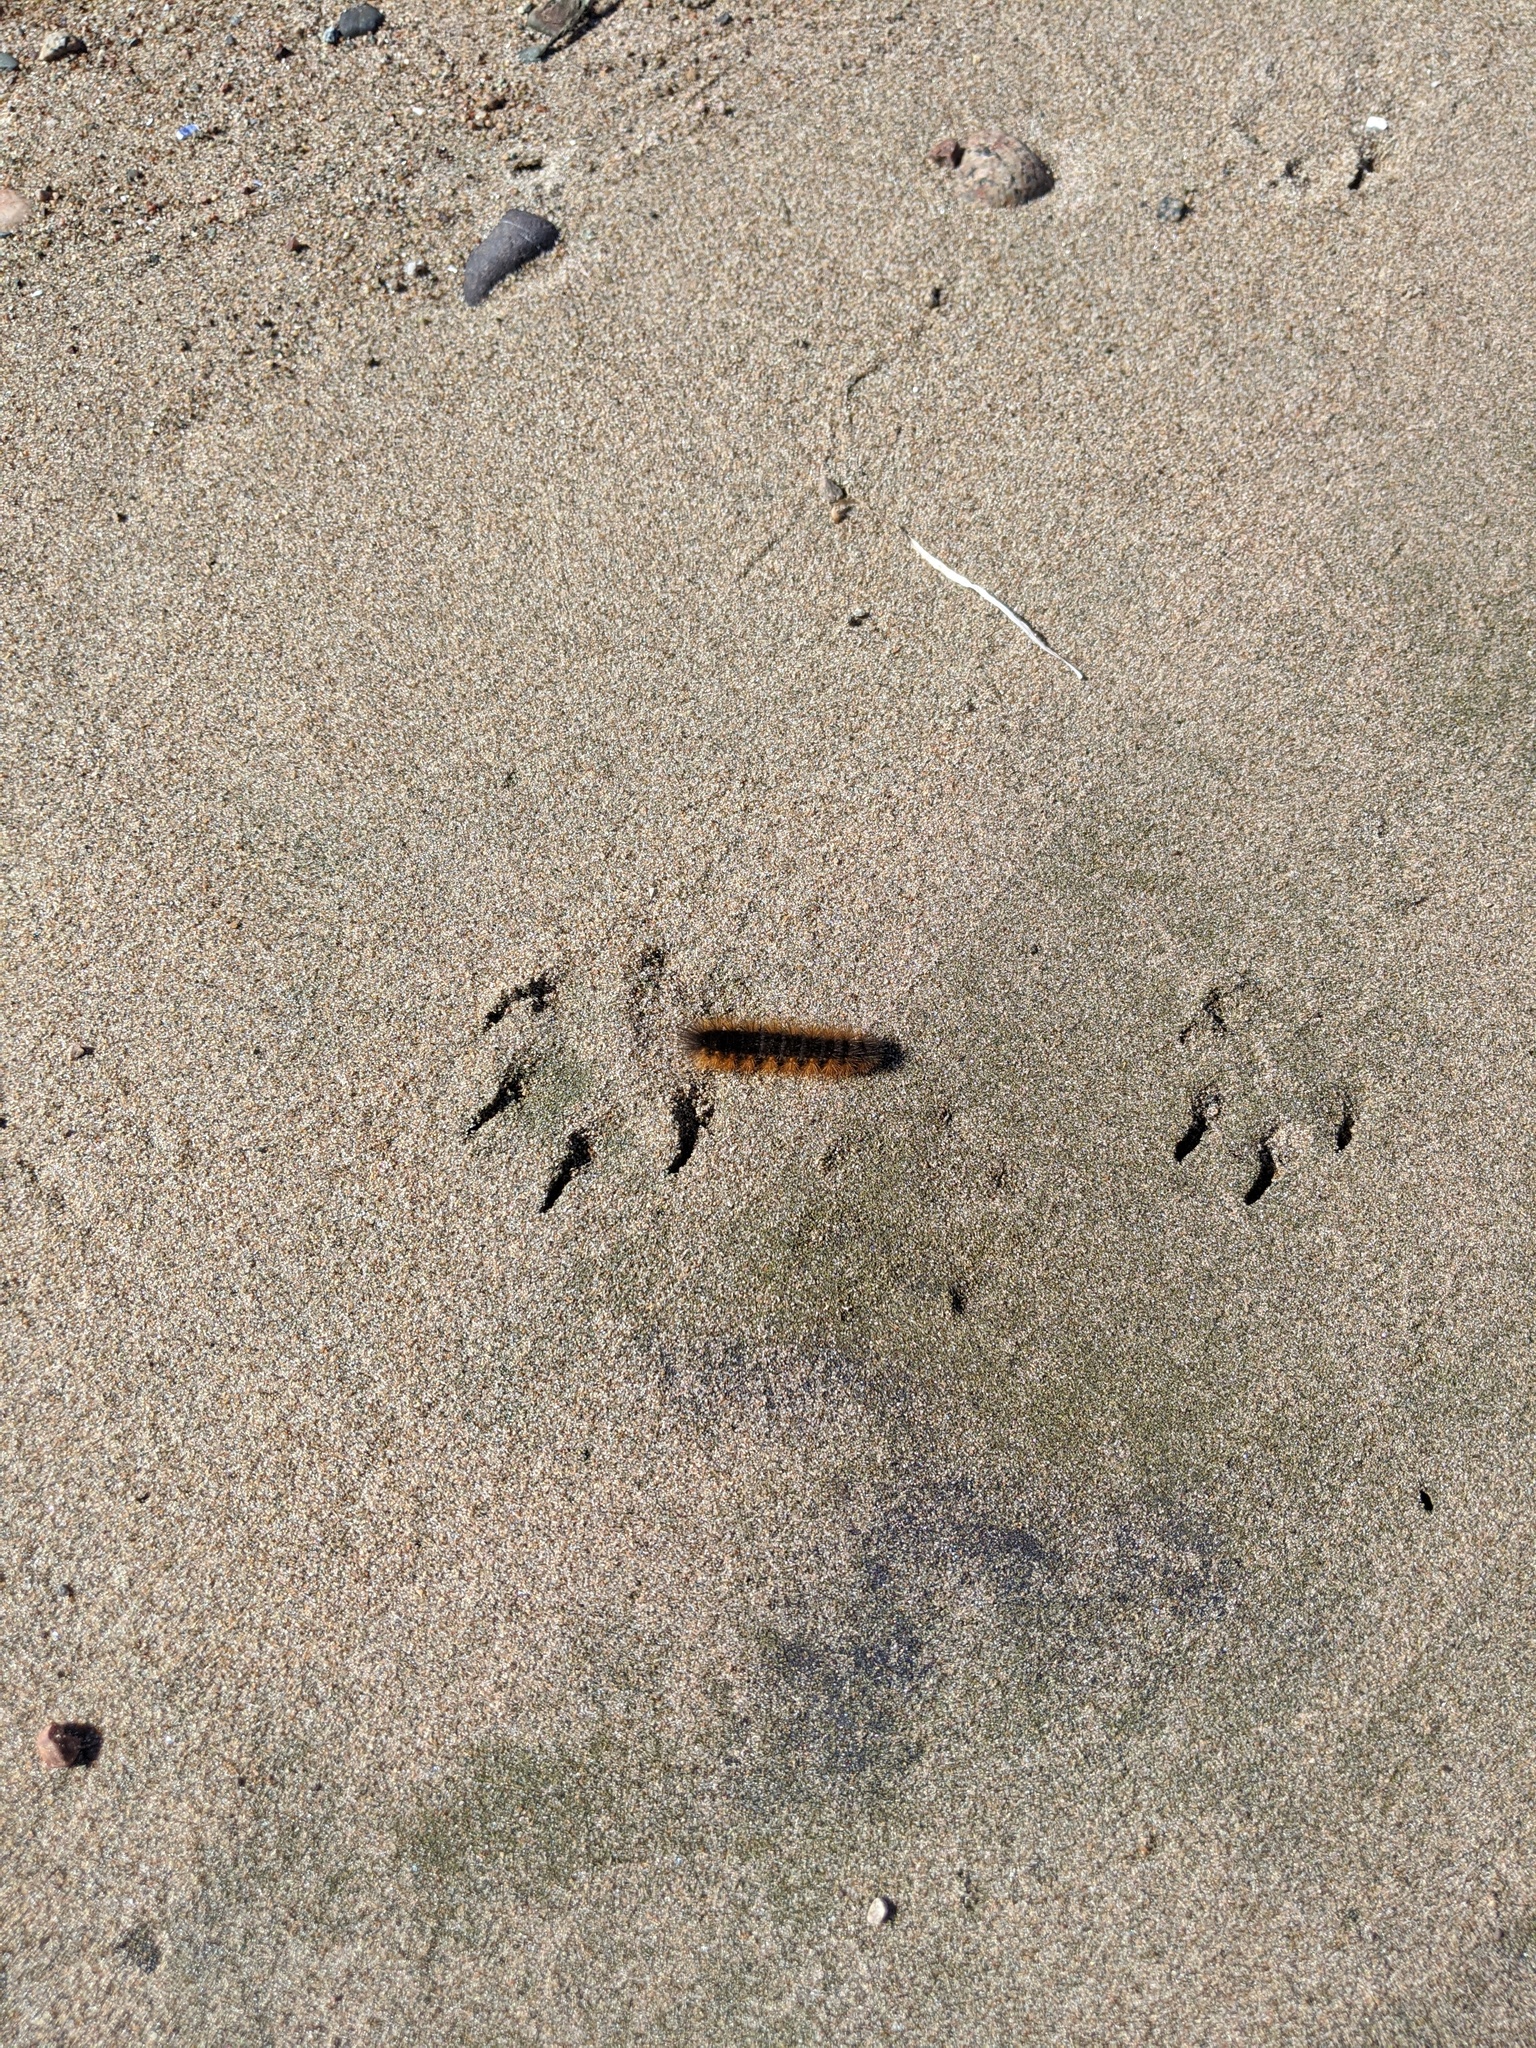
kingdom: Animalia
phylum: Arthropoda
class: Insecta
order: Lepidoptera
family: Erebidae
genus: Estigmene
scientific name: Estigmene acrea
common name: Salt marsh moth
